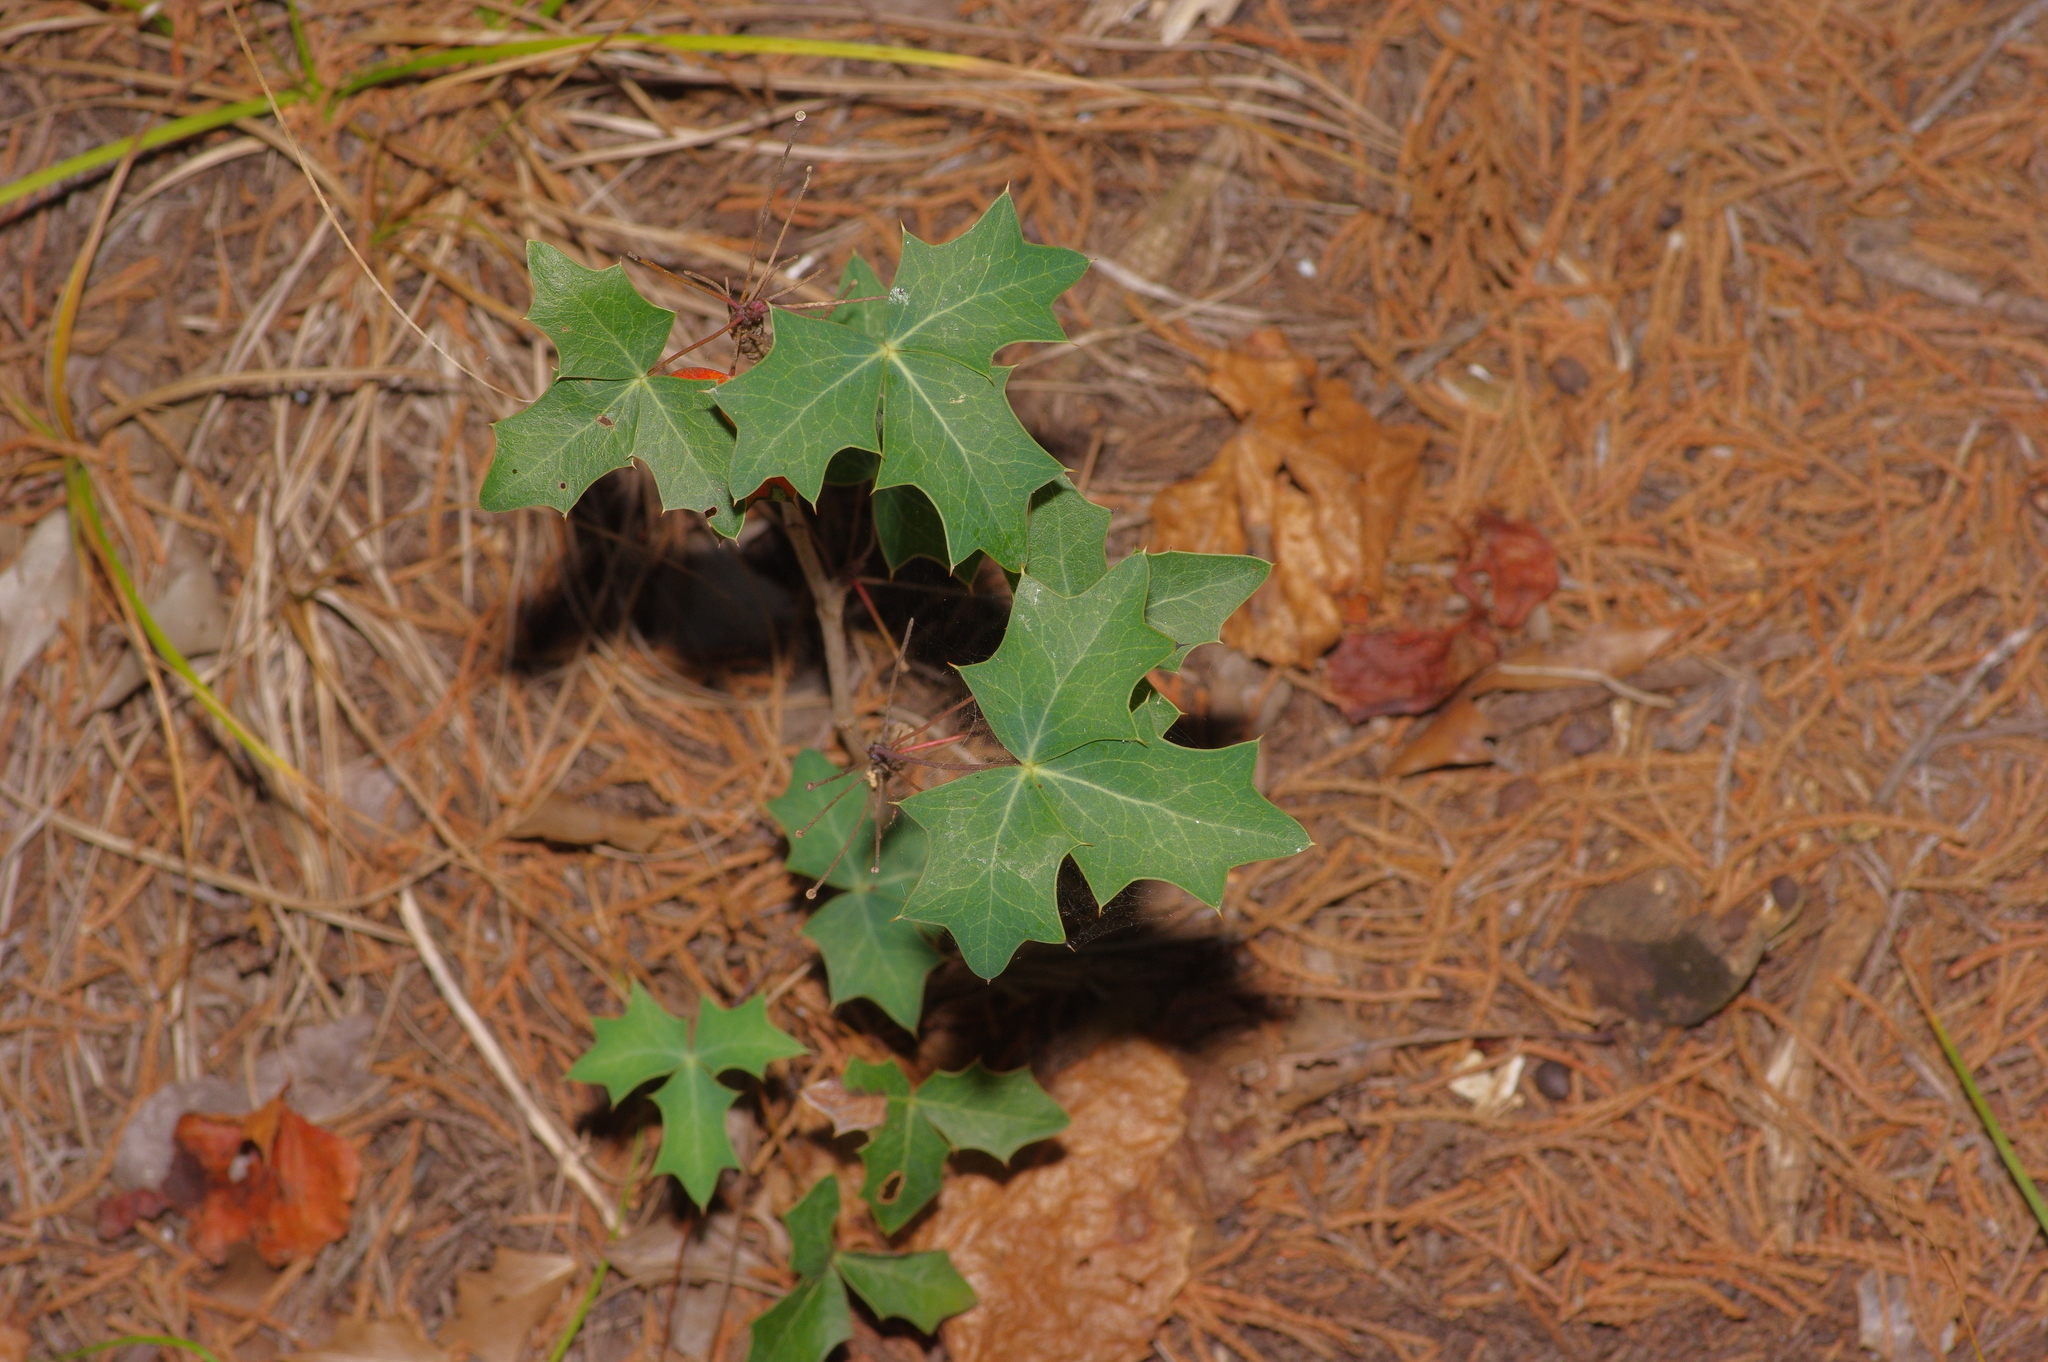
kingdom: Plantae
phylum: Tracheophyta
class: Magnoliopsida
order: Ranunculales
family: Berberidaceae
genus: Alloberberis
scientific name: Alloberberis trifoliolata
